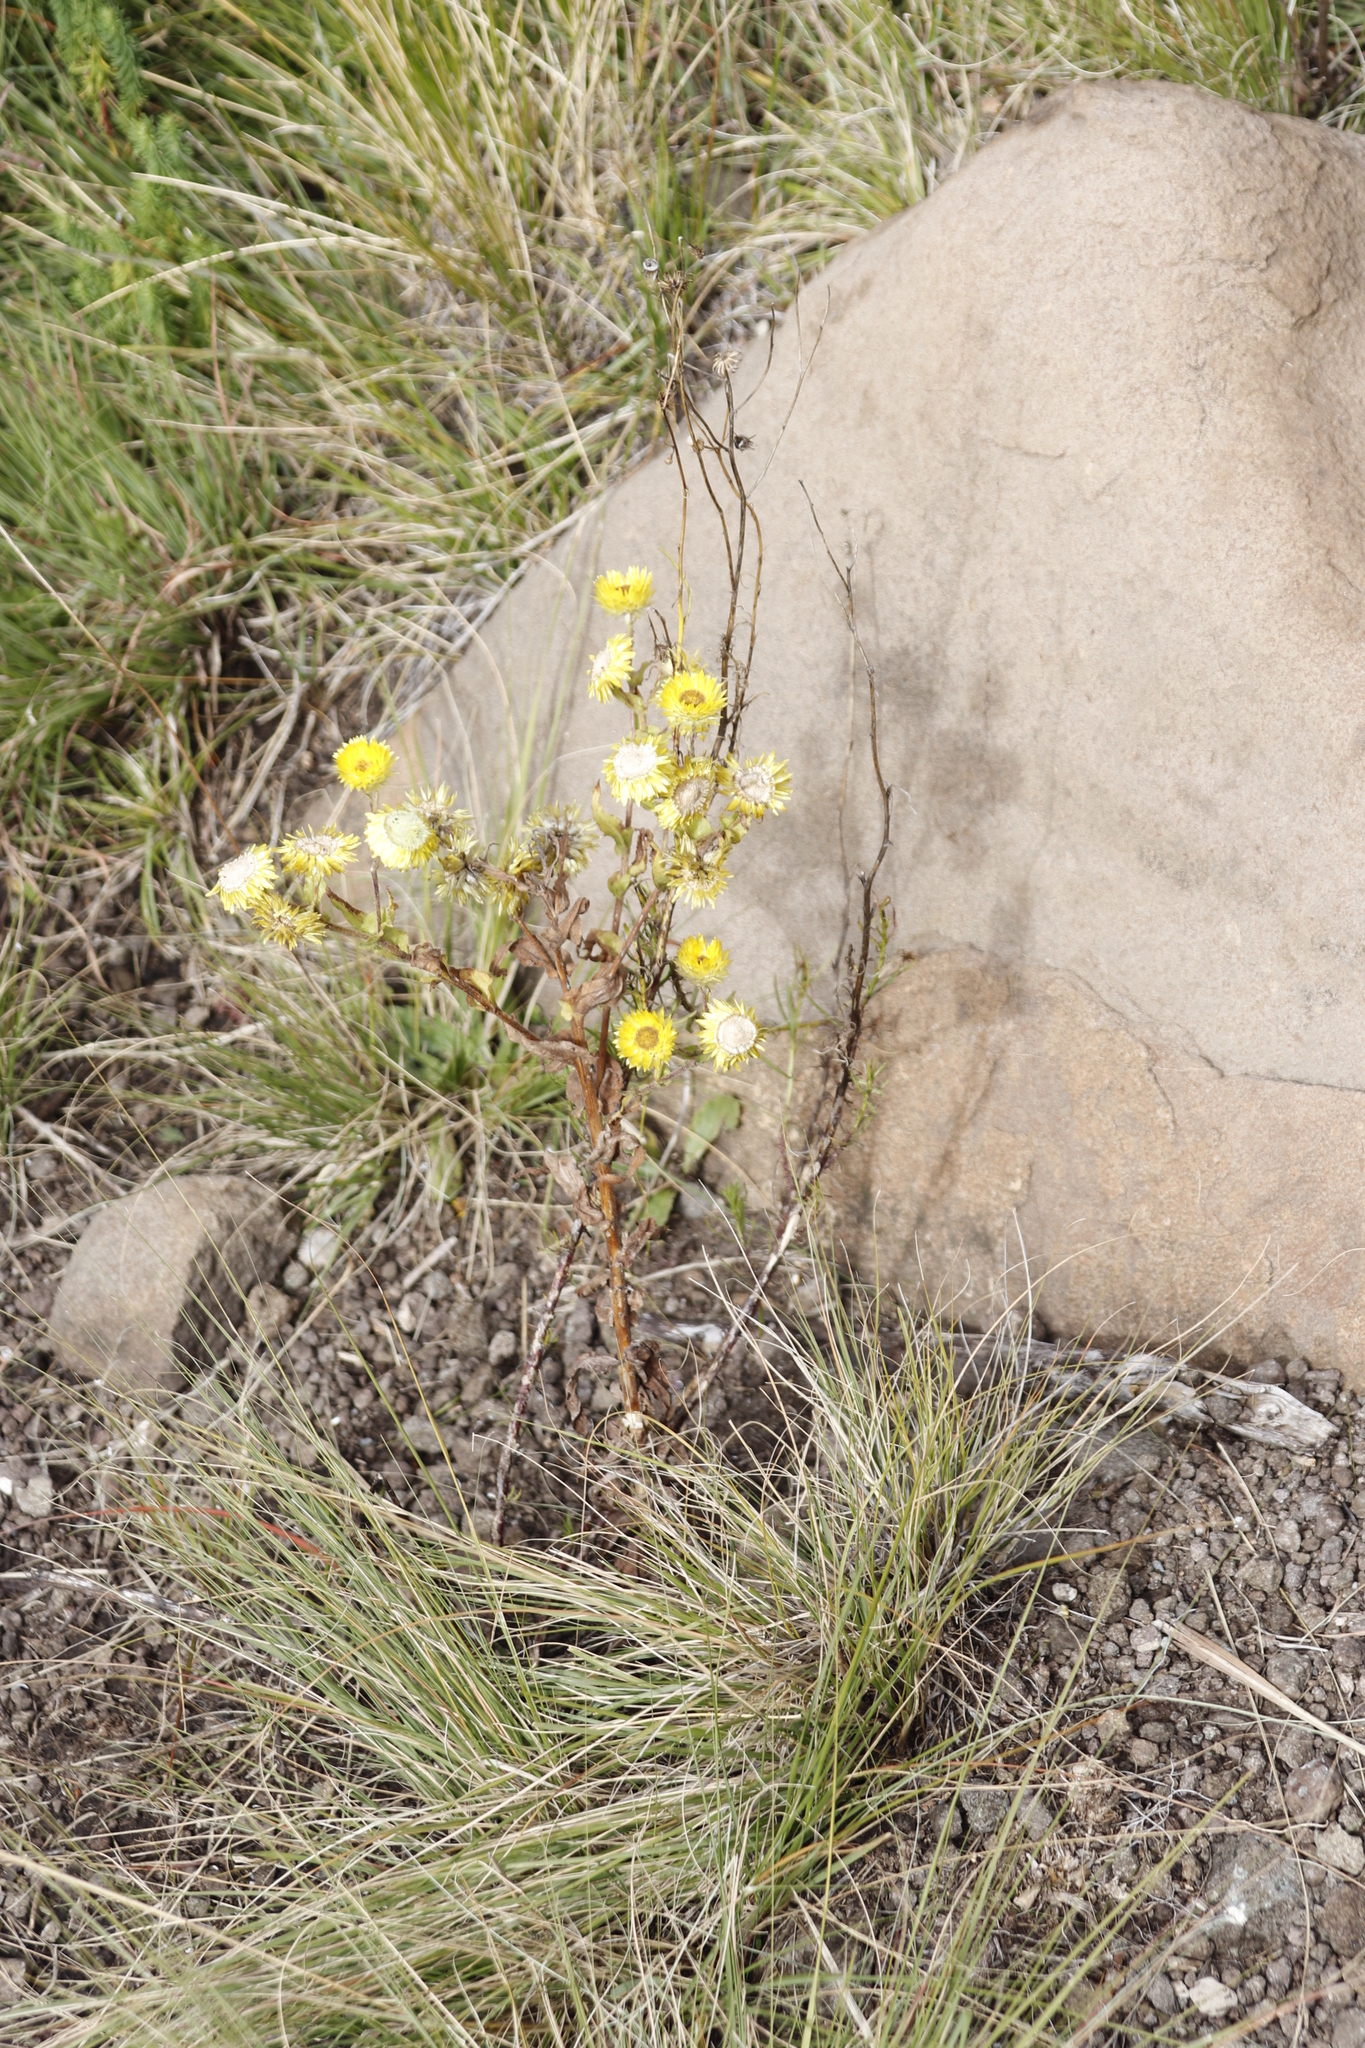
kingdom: Plantae
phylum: Tracheophyta
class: Magnoliopsida
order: Asterales
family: Asteraceae
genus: Helichrysum
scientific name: Helichrysum cooperi
